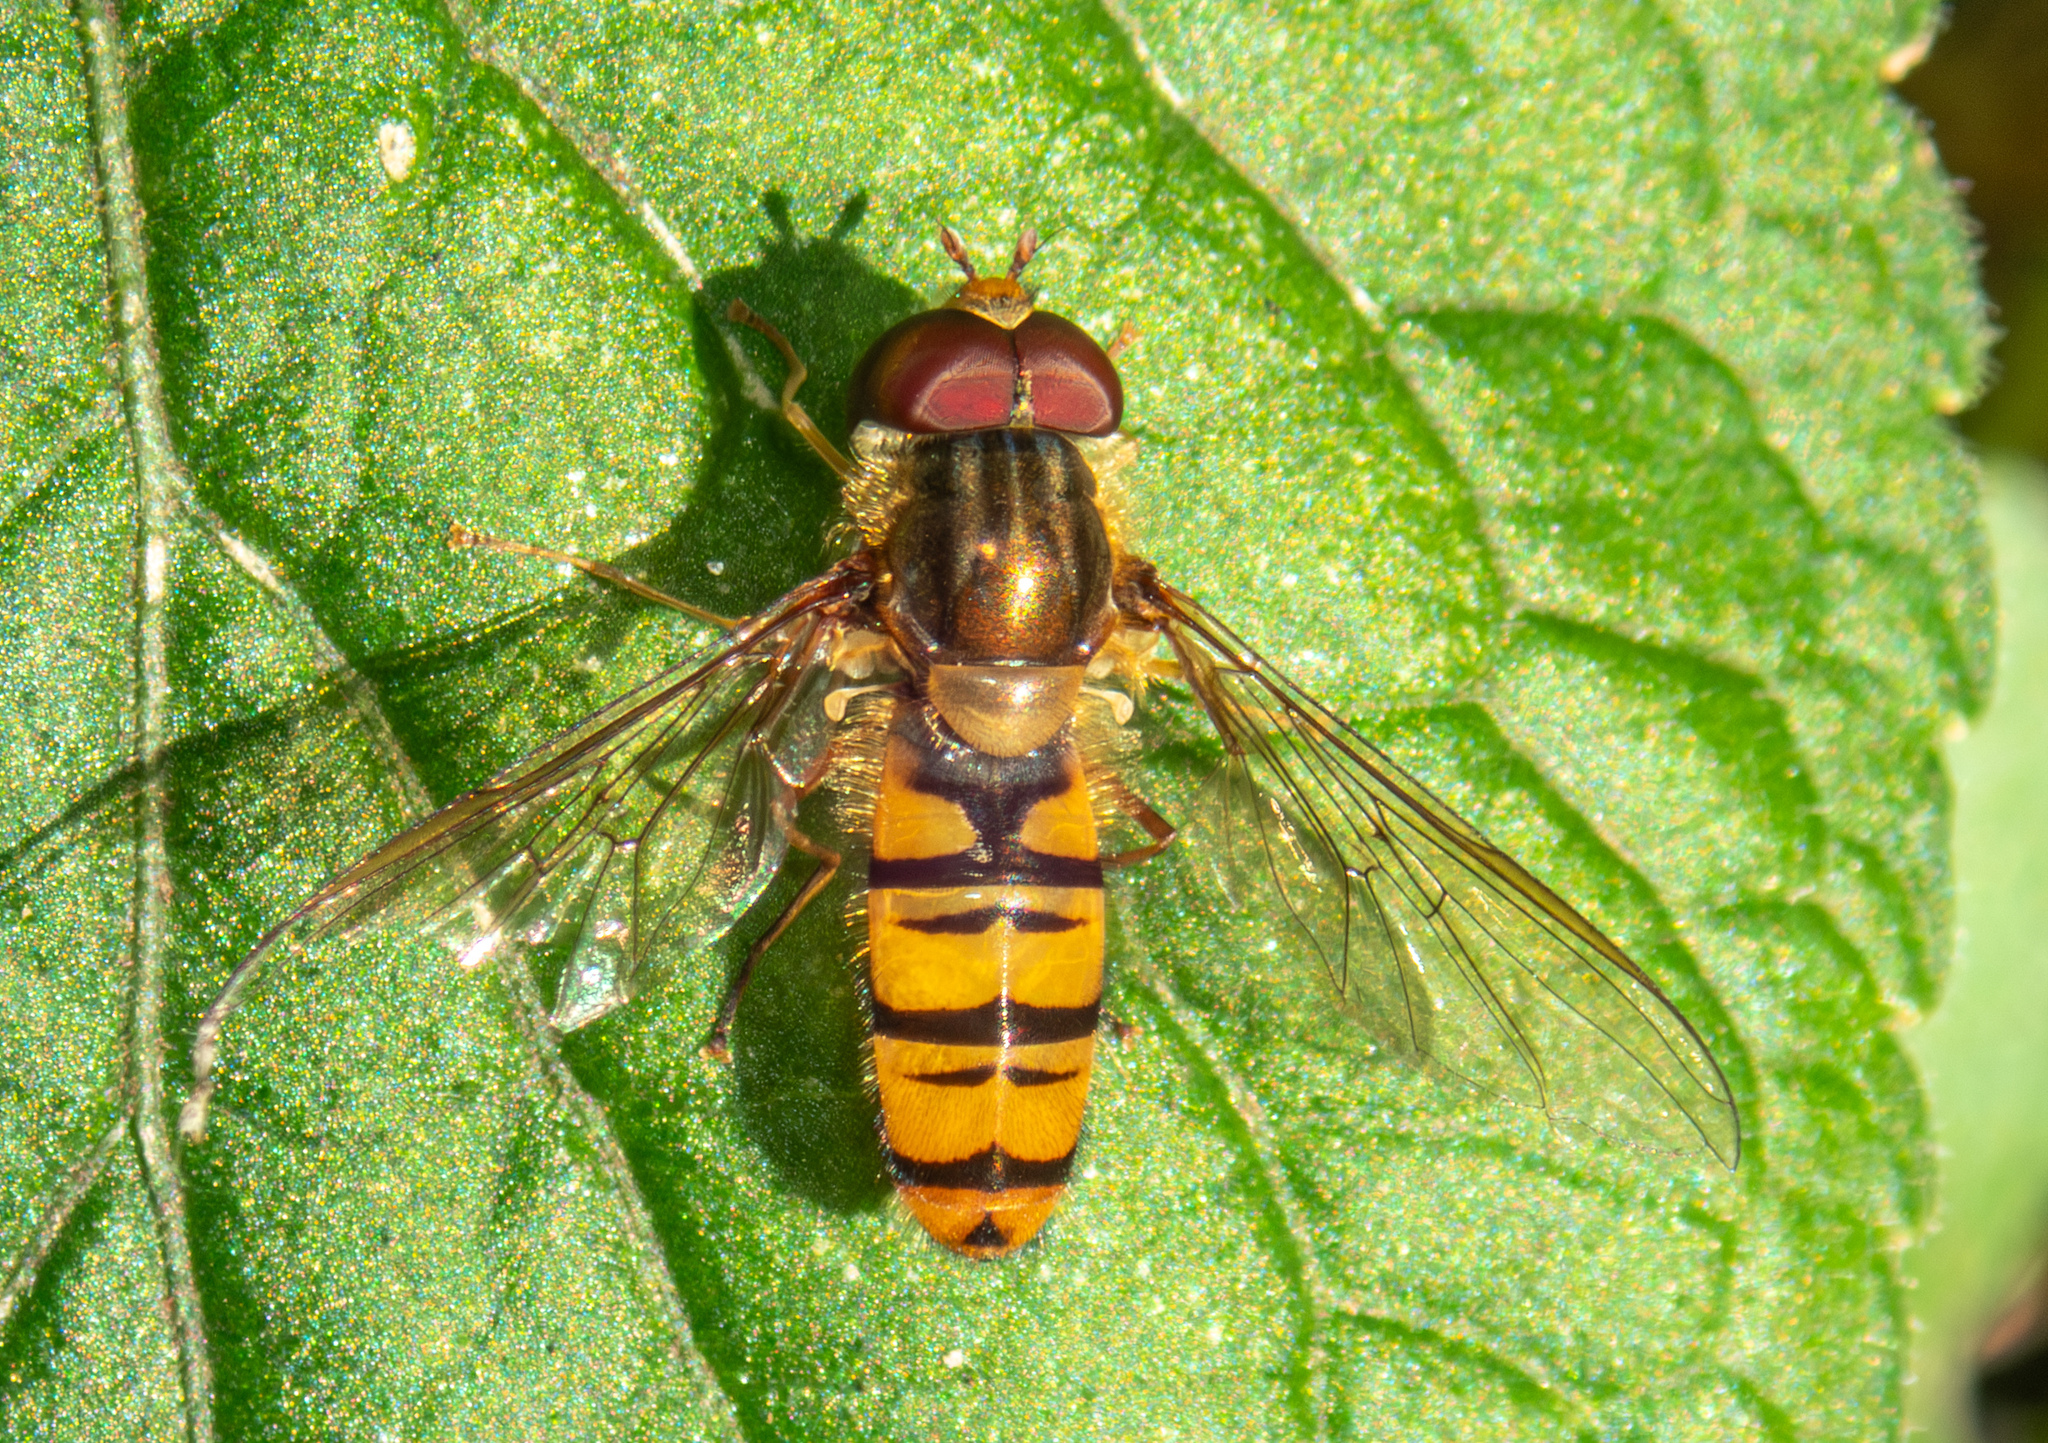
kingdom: Animalia
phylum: Arthropoda
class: Insecta
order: Diptera
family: Syrphidae
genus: Episyrphus
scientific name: Episyrphus balteatus
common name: Marmalade hoverfly
